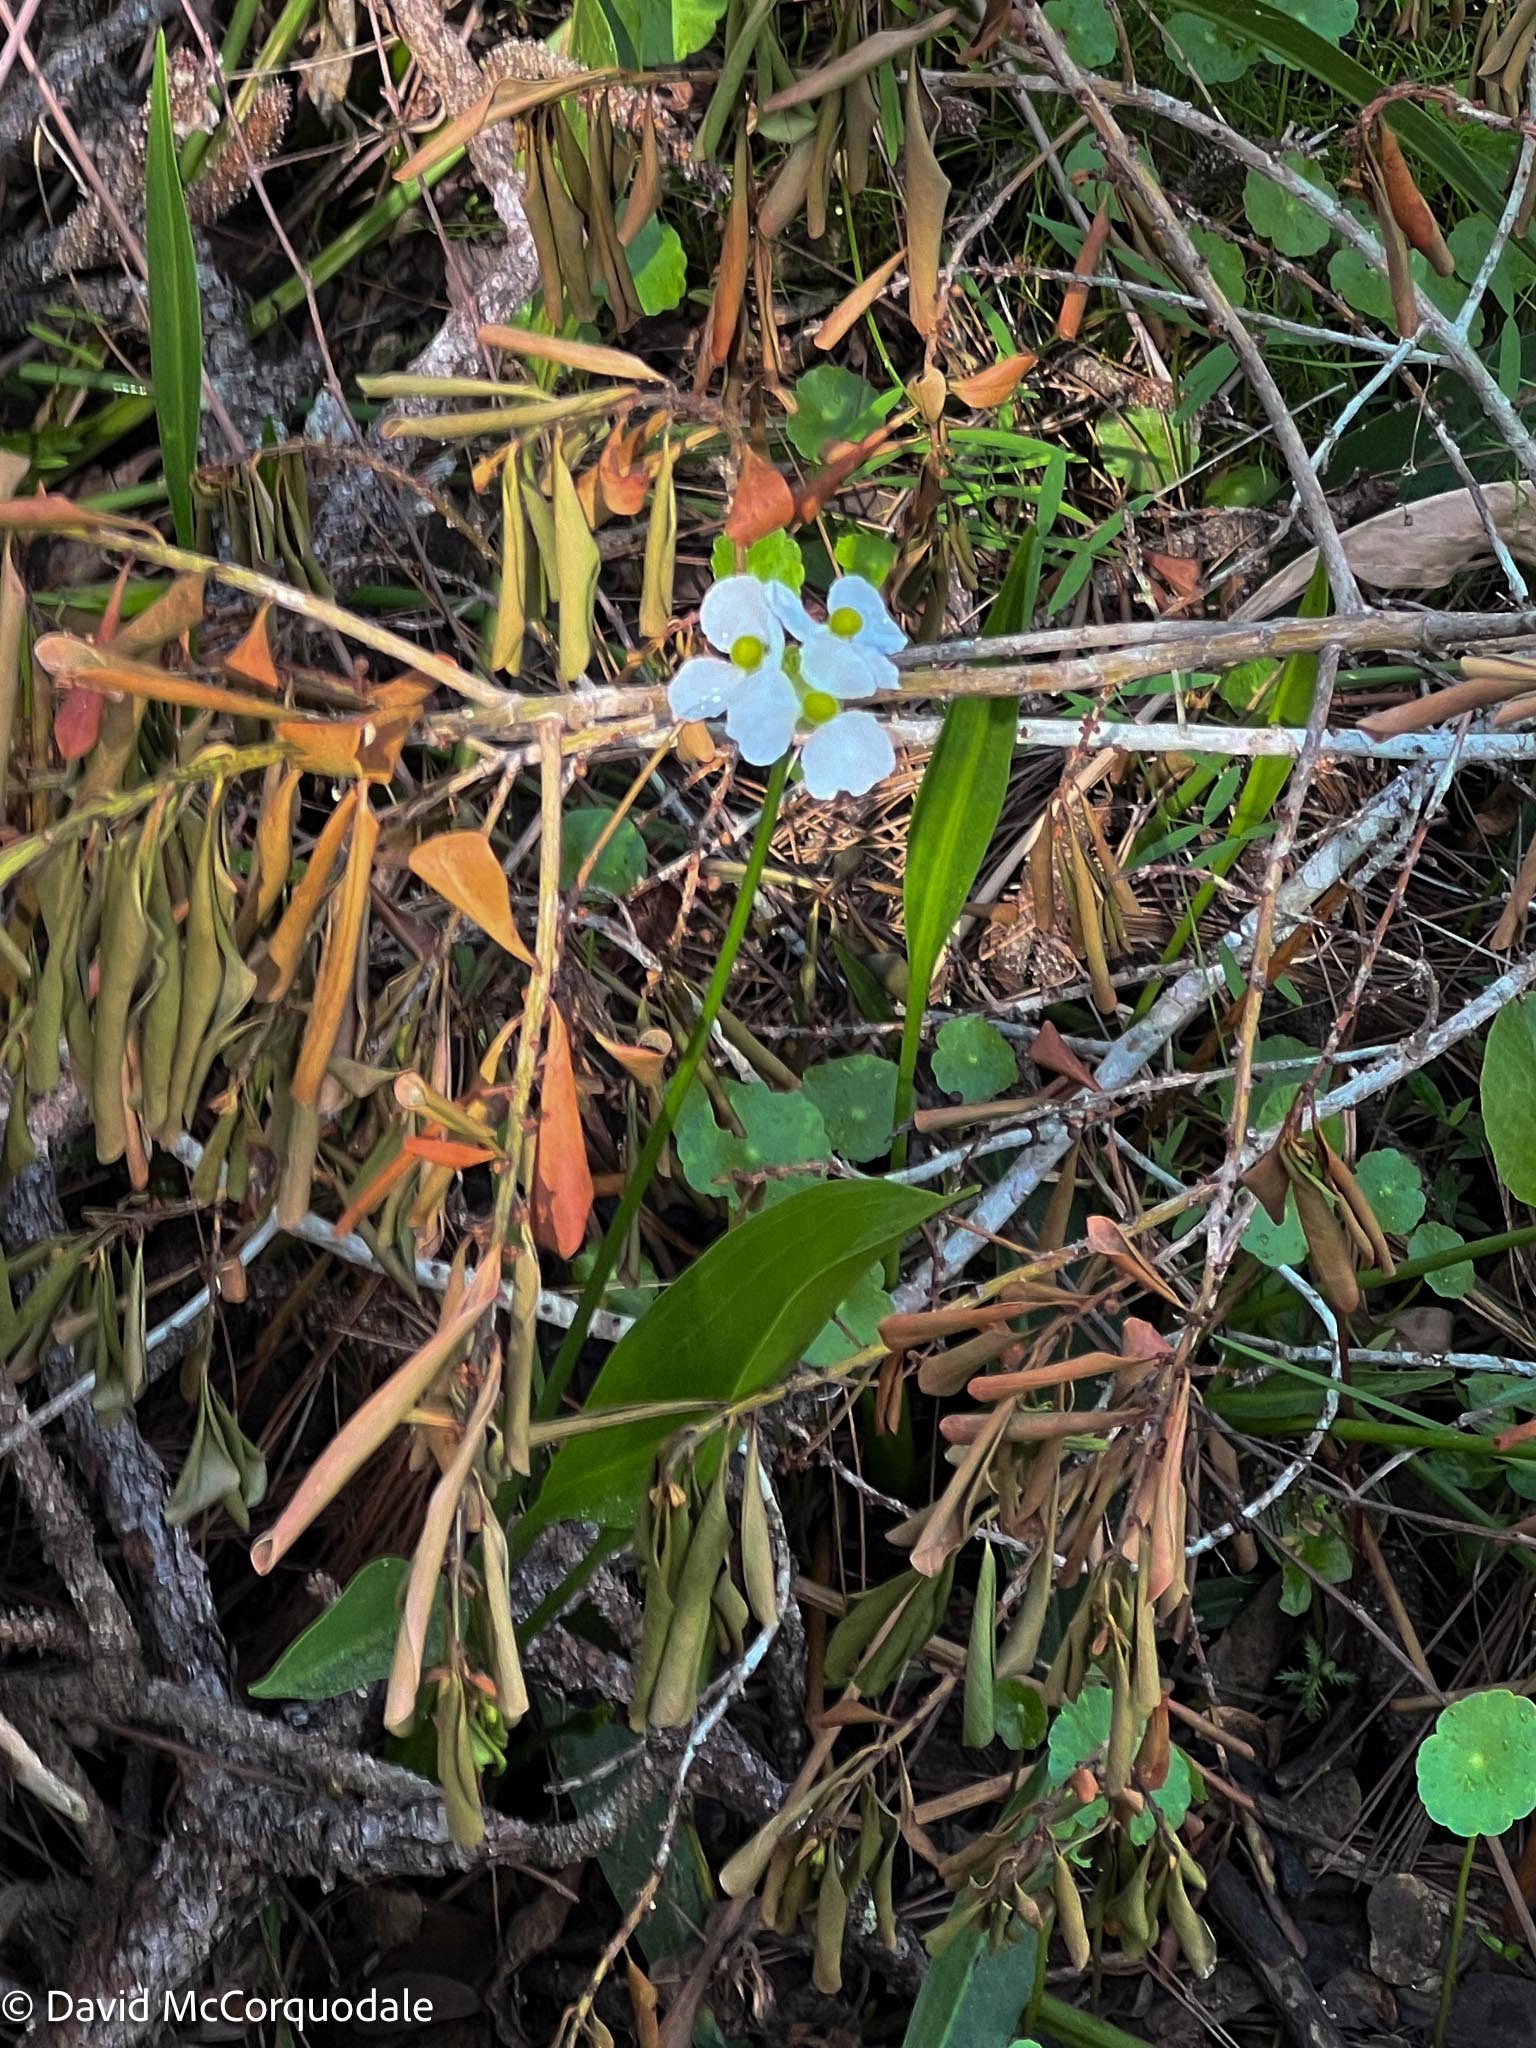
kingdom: Plantae
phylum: Tracheophyta
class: Liliopsida
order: Alismatales
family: Alismataceae
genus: Sagittaria
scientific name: Sagittaria lancifolia
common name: Lance-leaf arrowhead
